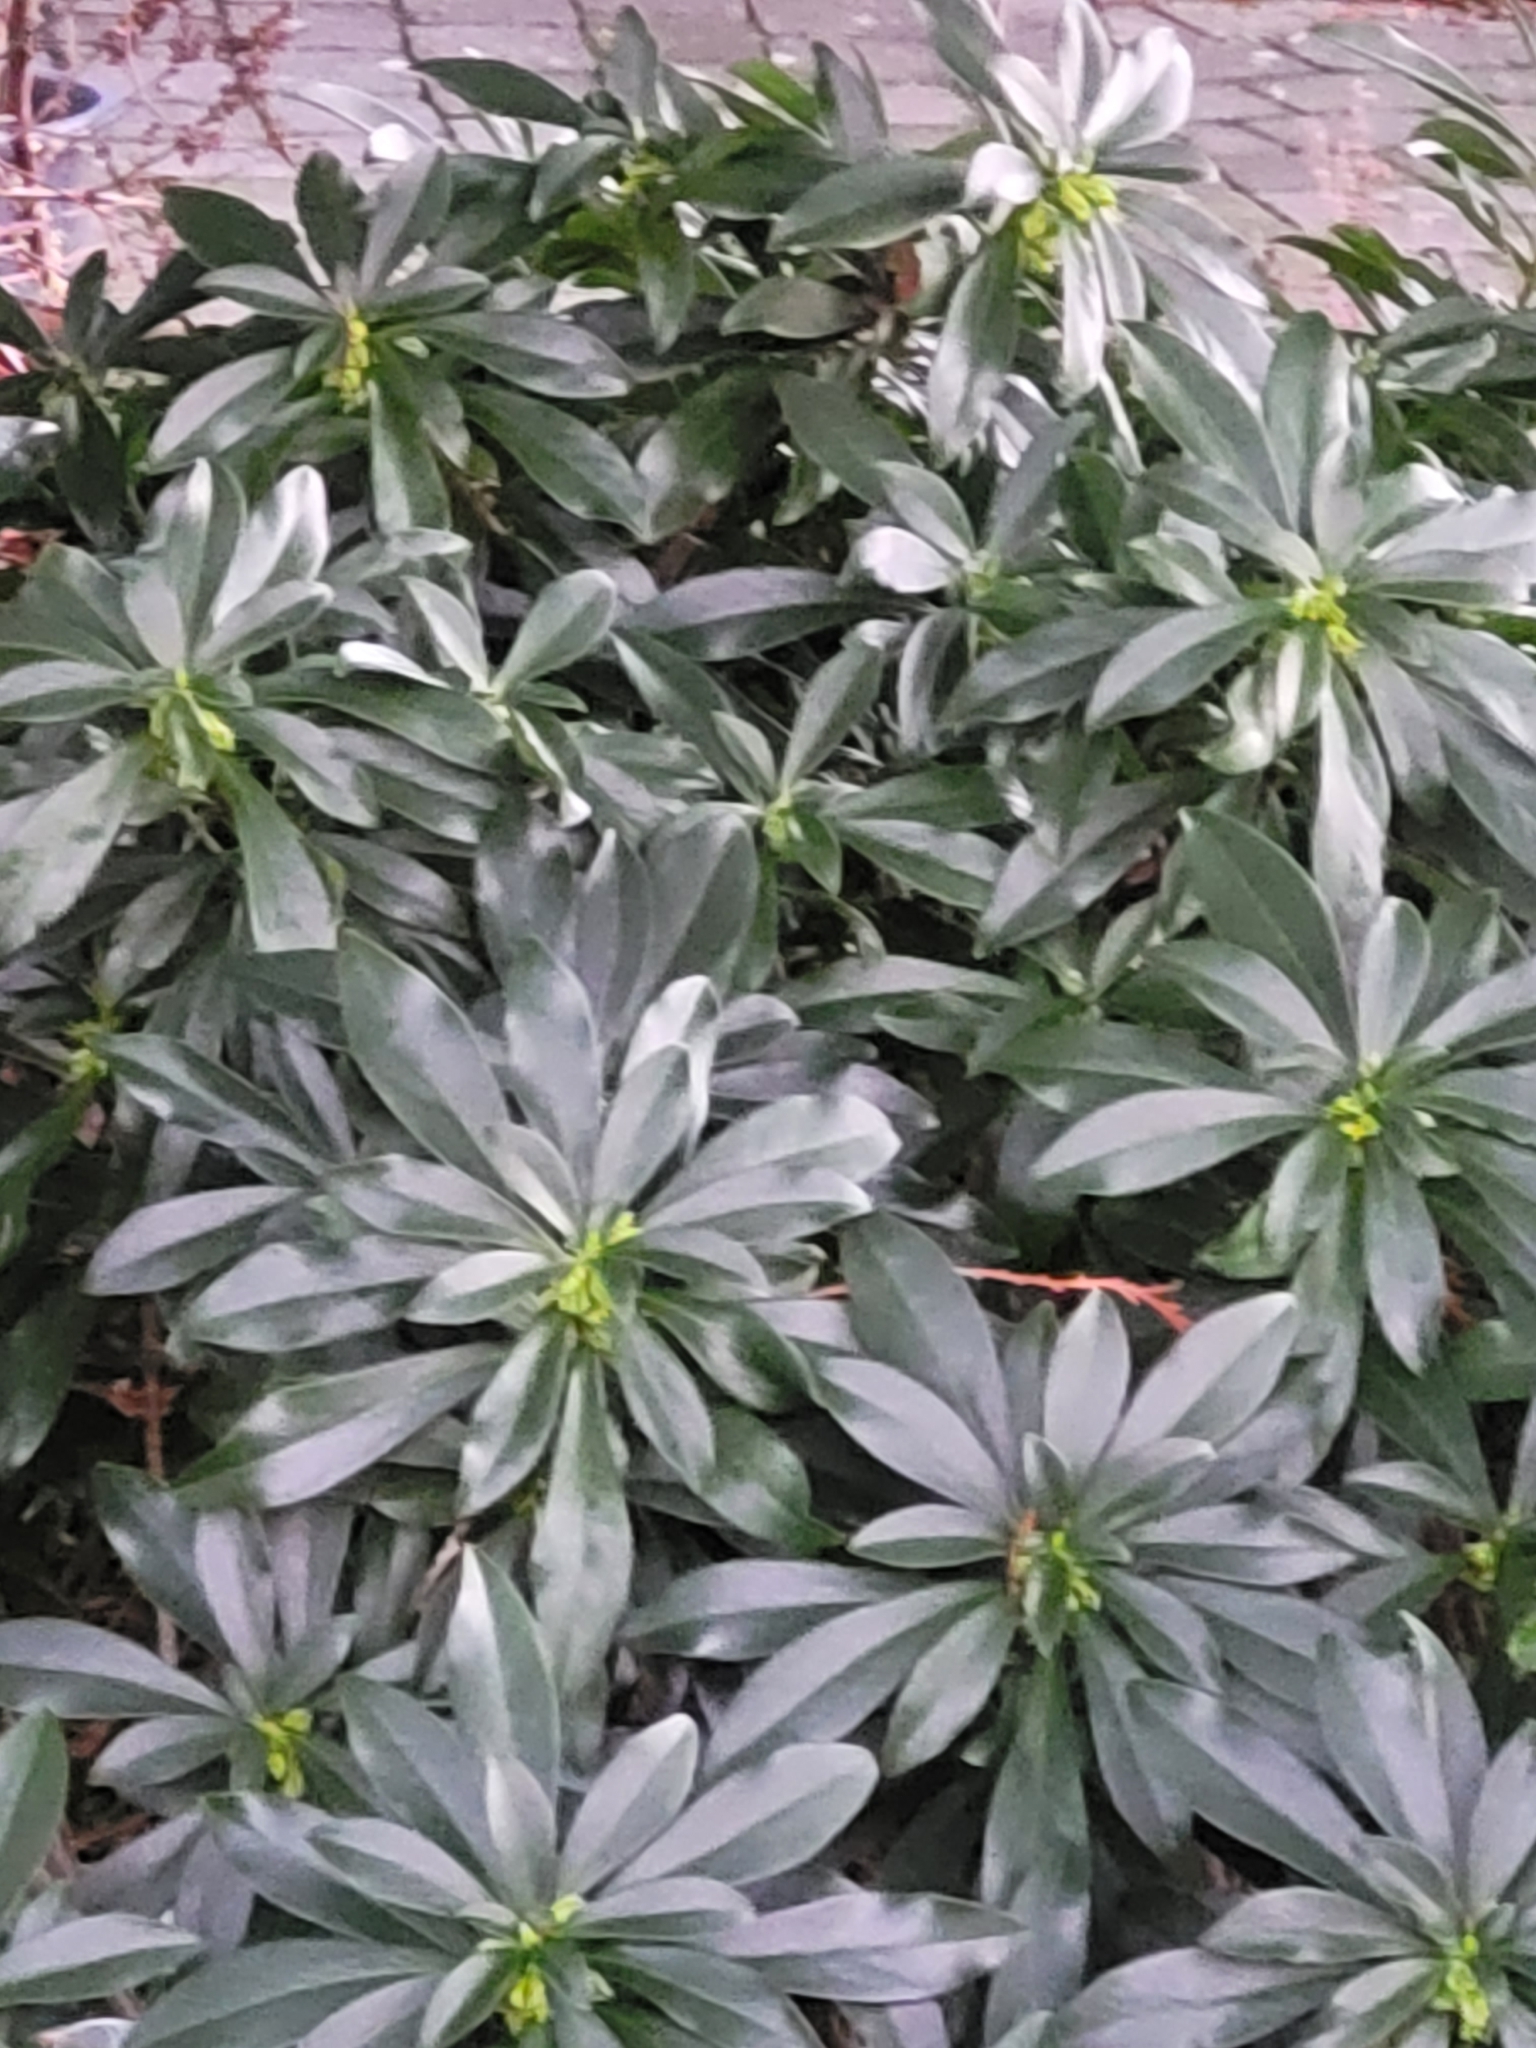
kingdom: Plantae
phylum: Tracheophyta
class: Magnoliopsida
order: Malvales
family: Thymelaeaceae
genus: Daphne
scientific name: Daphne laureola
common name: Spurge-laurel
